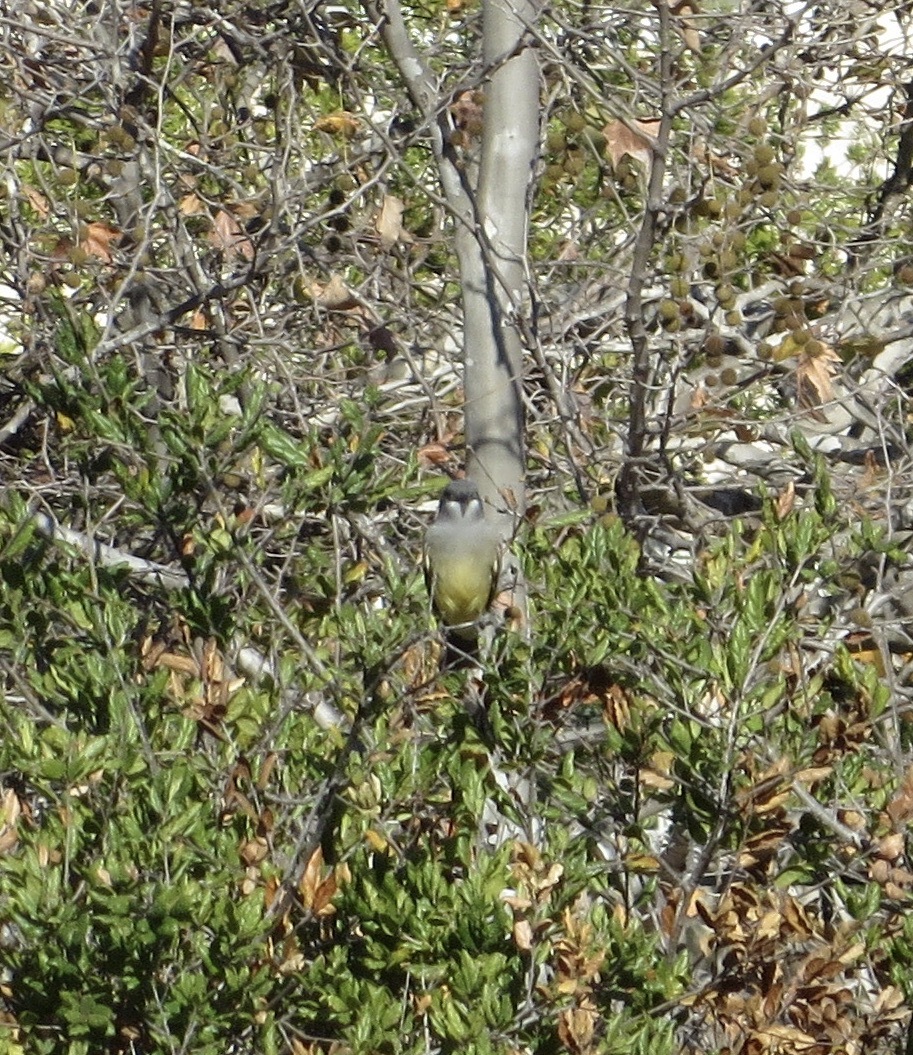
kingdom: Animalia
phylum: Chordata
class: Aves
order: Passeriformes
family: Tyrannidae
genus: Tyrannus
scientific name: Tyrannus vociferans
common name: Cassin's kingbird
